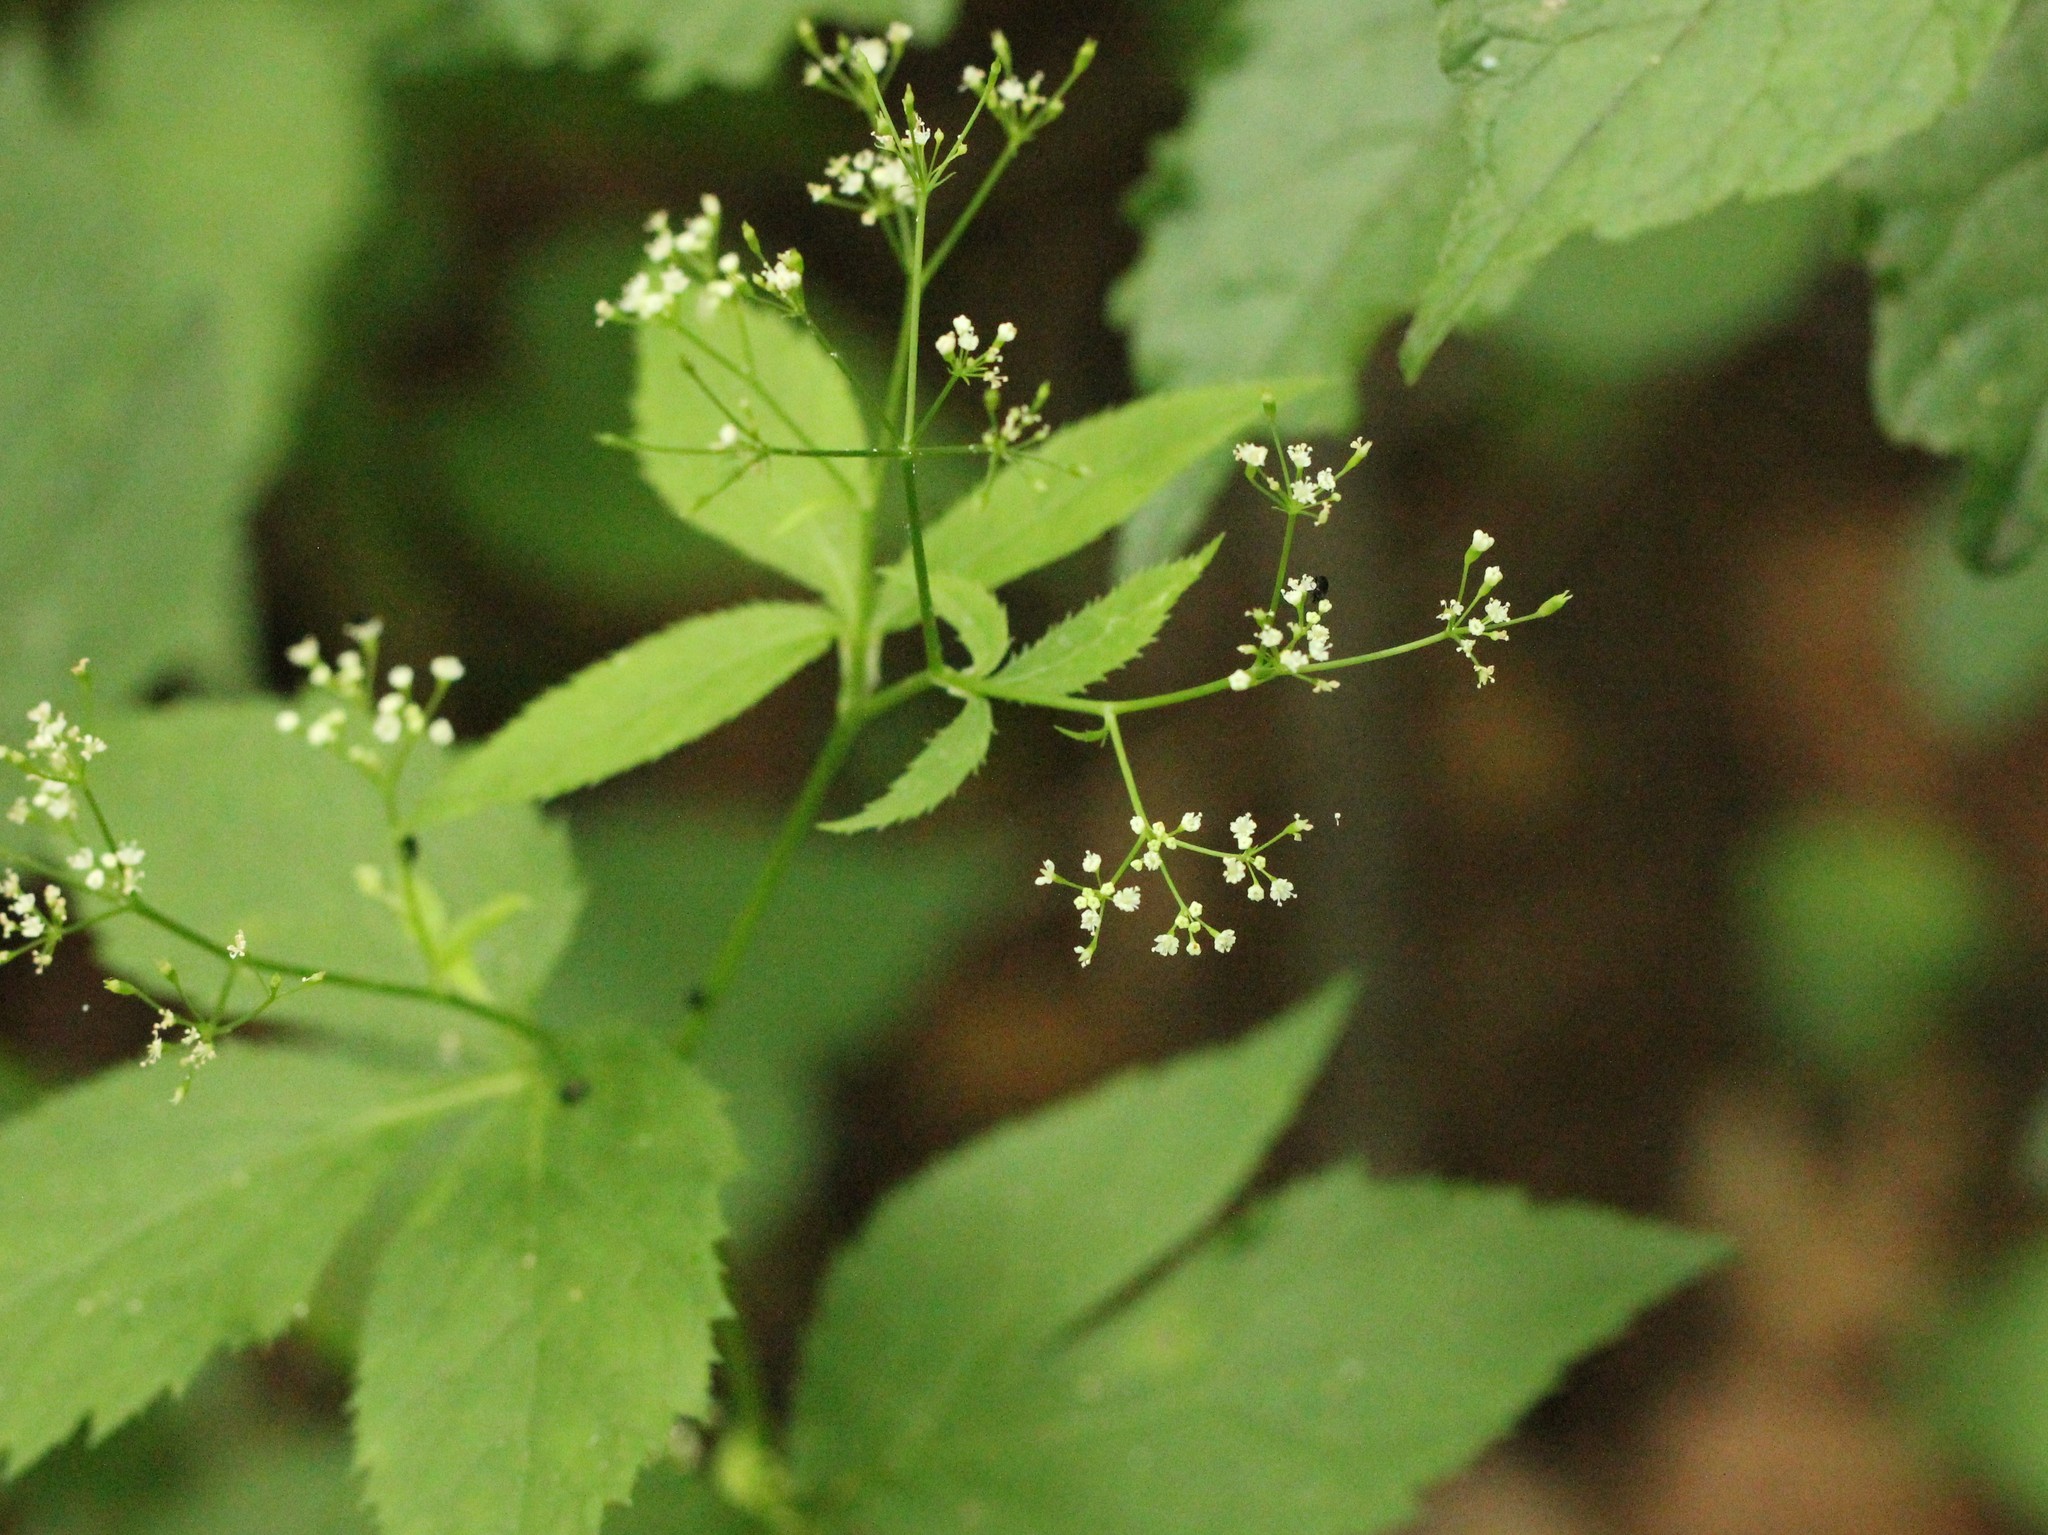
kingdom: Plantae
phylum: Tracheophyta
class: Magnoliopsida
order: Apiales
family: Apiaceae
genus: Cryptotaenia
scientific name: Cryptotaenia canadensis
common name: Honewort
